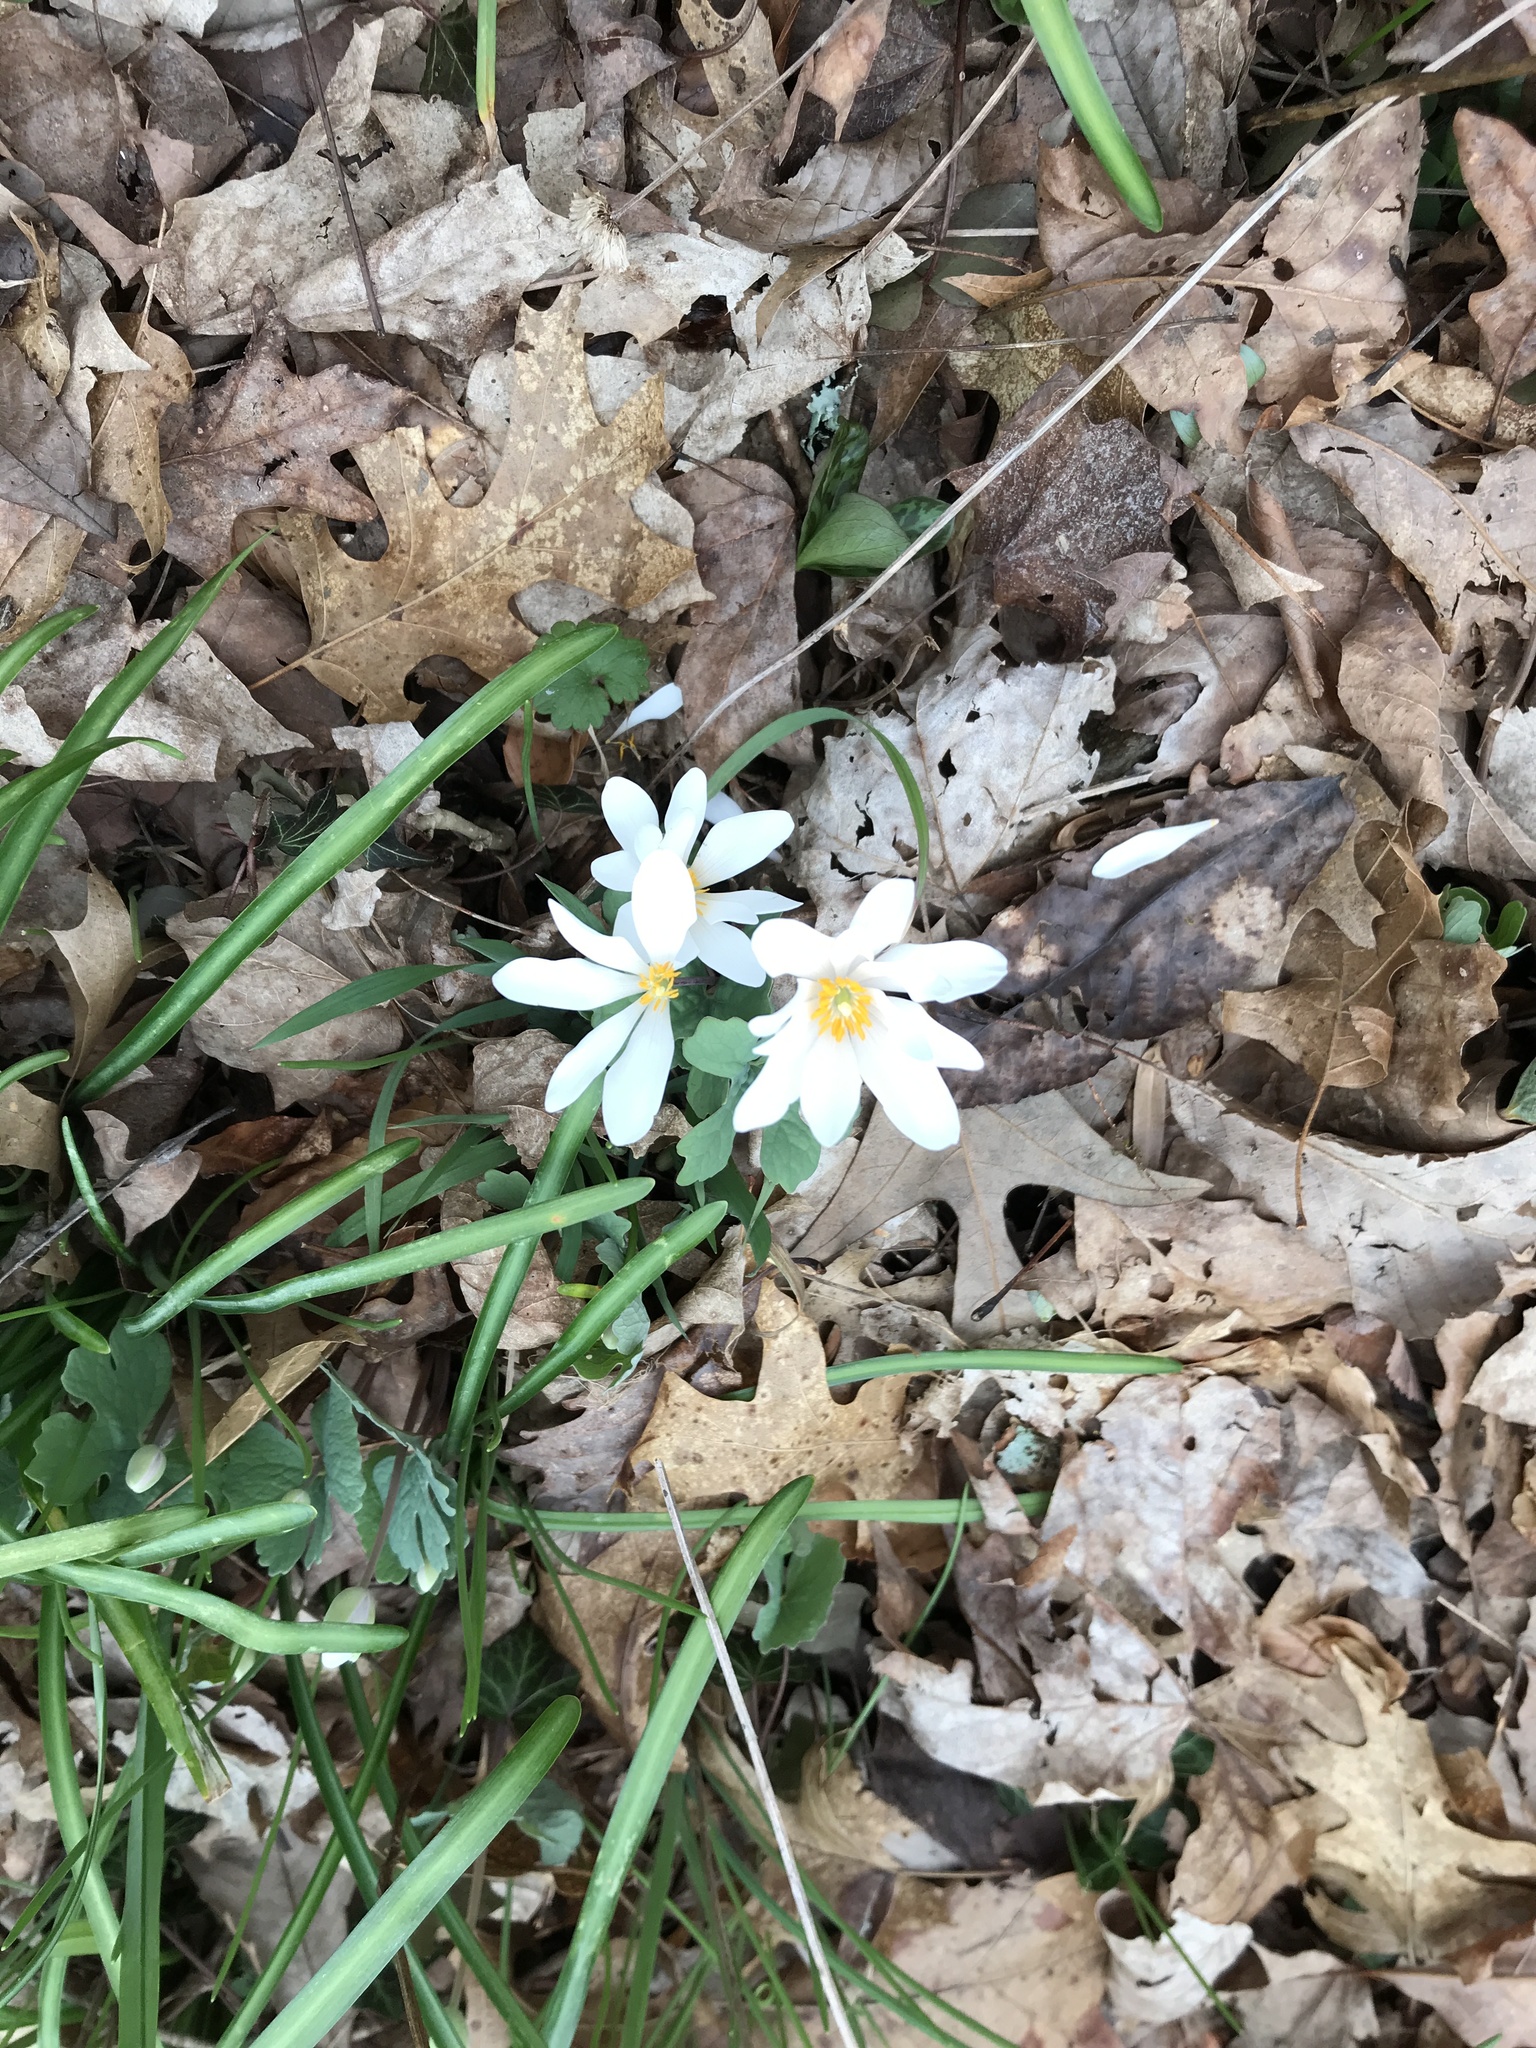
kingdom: Plantae
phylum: Tracheophyta
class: Magnoliopsida
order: Ranunculales
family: Papaveraceae
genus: Sanguinaria
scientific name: Sanguinaria canadensis
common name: Bloodroot
